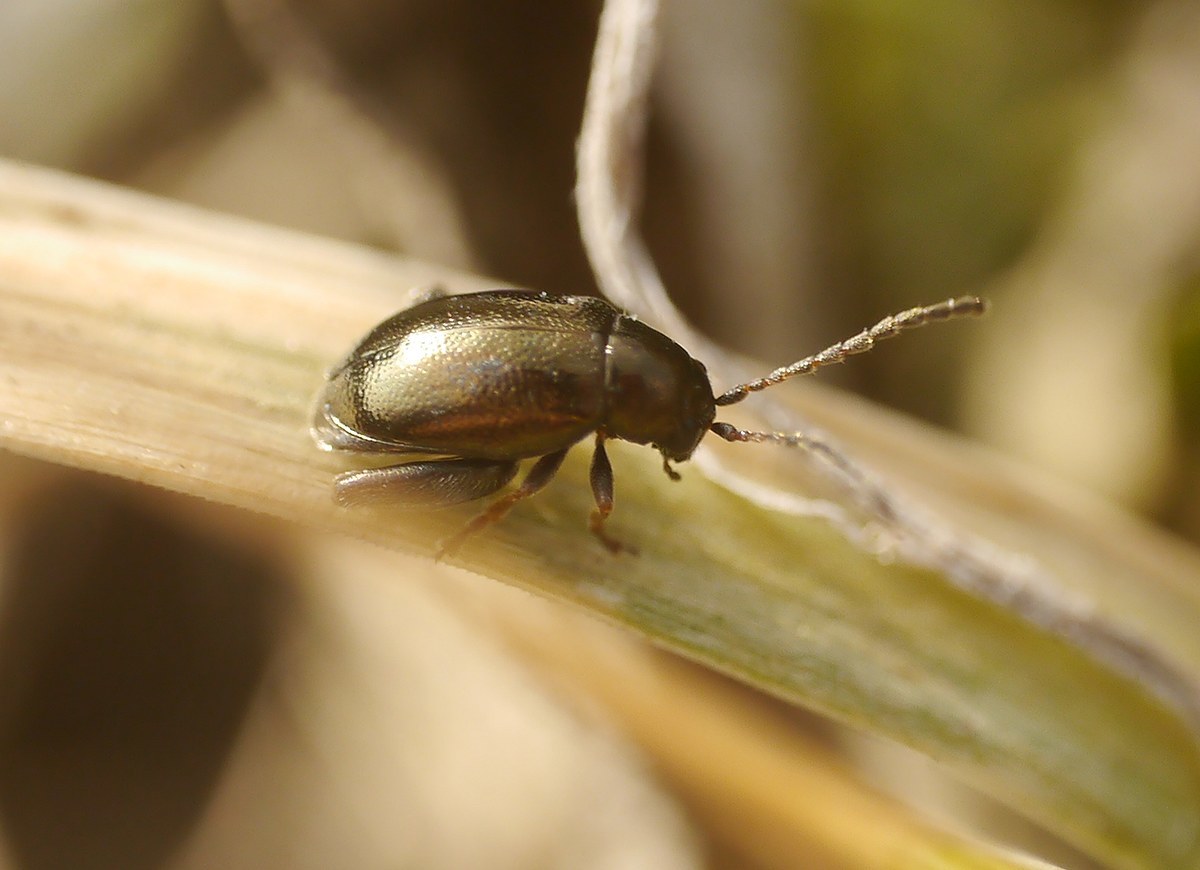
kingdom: Animalia
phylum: Arthropoda
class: Insecta
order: Coleoptera
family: Chrysomelidae
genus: Longitarsus
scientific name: Longitarsus echii
